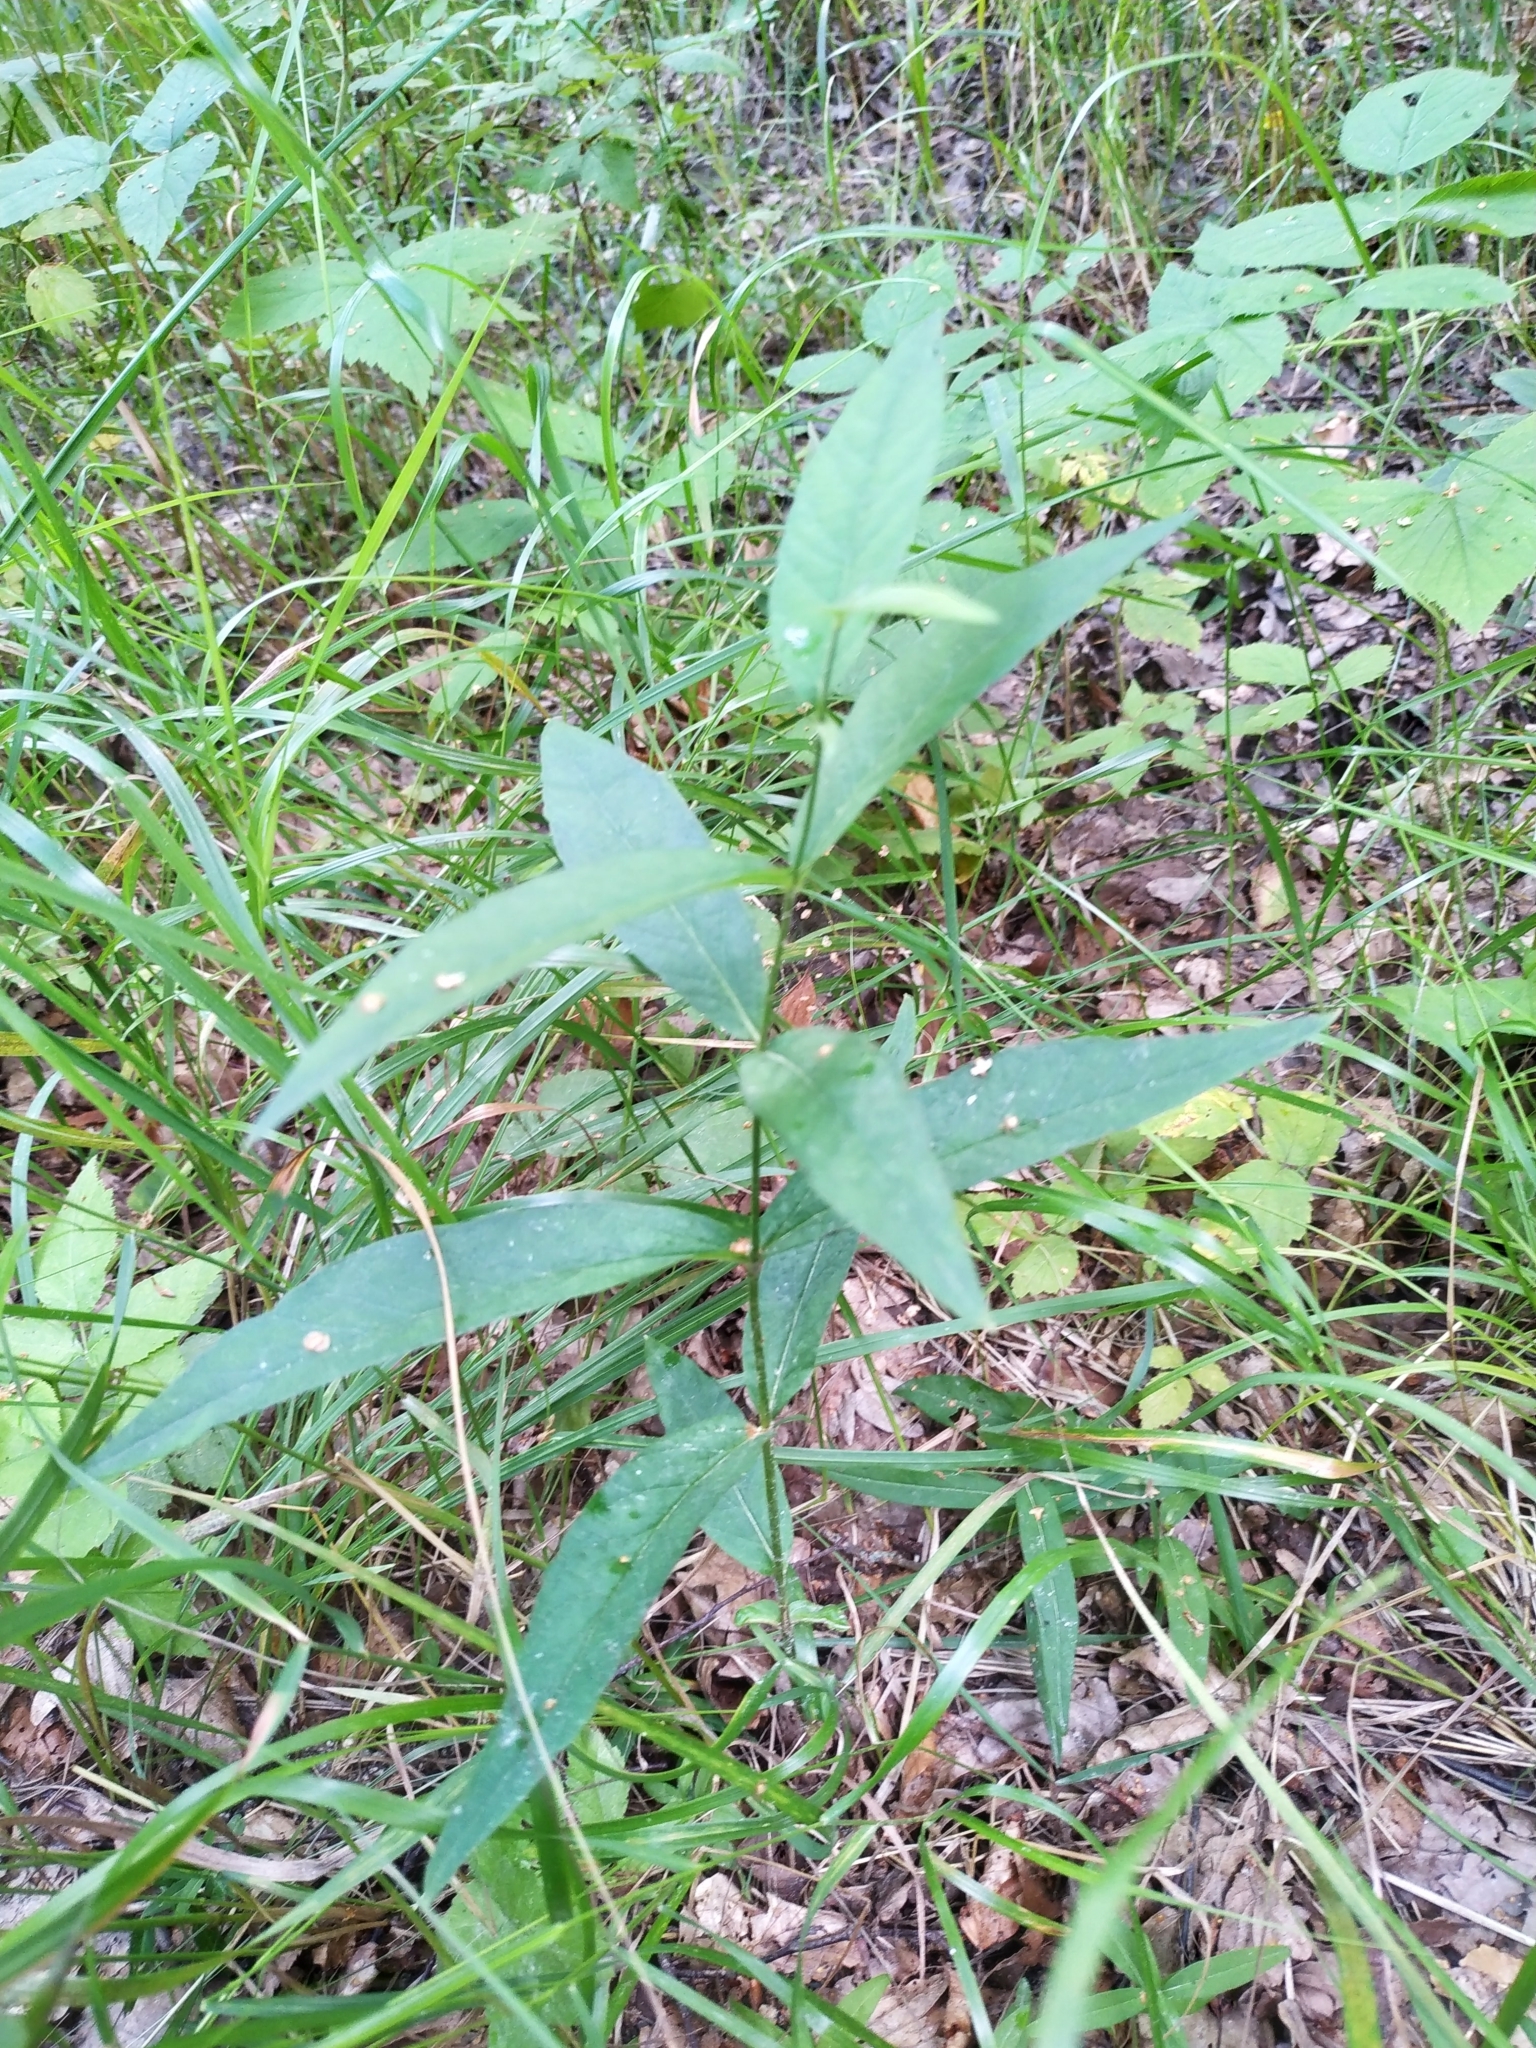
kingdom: Plantae
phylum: Tracheophyta
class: Magnoliopsida
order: Ericales
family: Primulaceae
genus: Lysimachia
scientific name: Lysimachia vulgaris
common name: Yellow loosestrife
